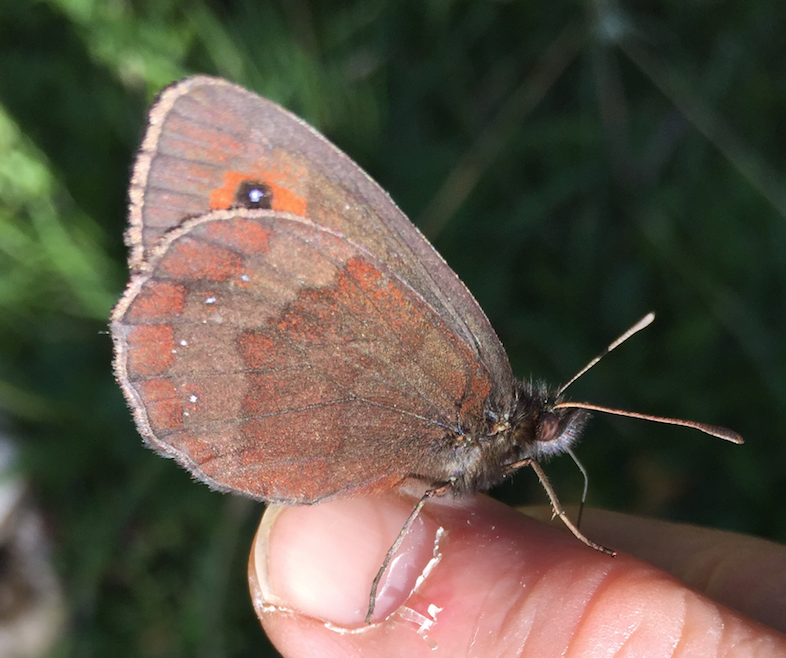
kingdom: Animalia
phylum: Arthropoda
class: Insecta
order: Lepidoptera
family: Nymphalidae
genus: Erebia
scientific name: Erebia aethiops
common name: Scotch argus
